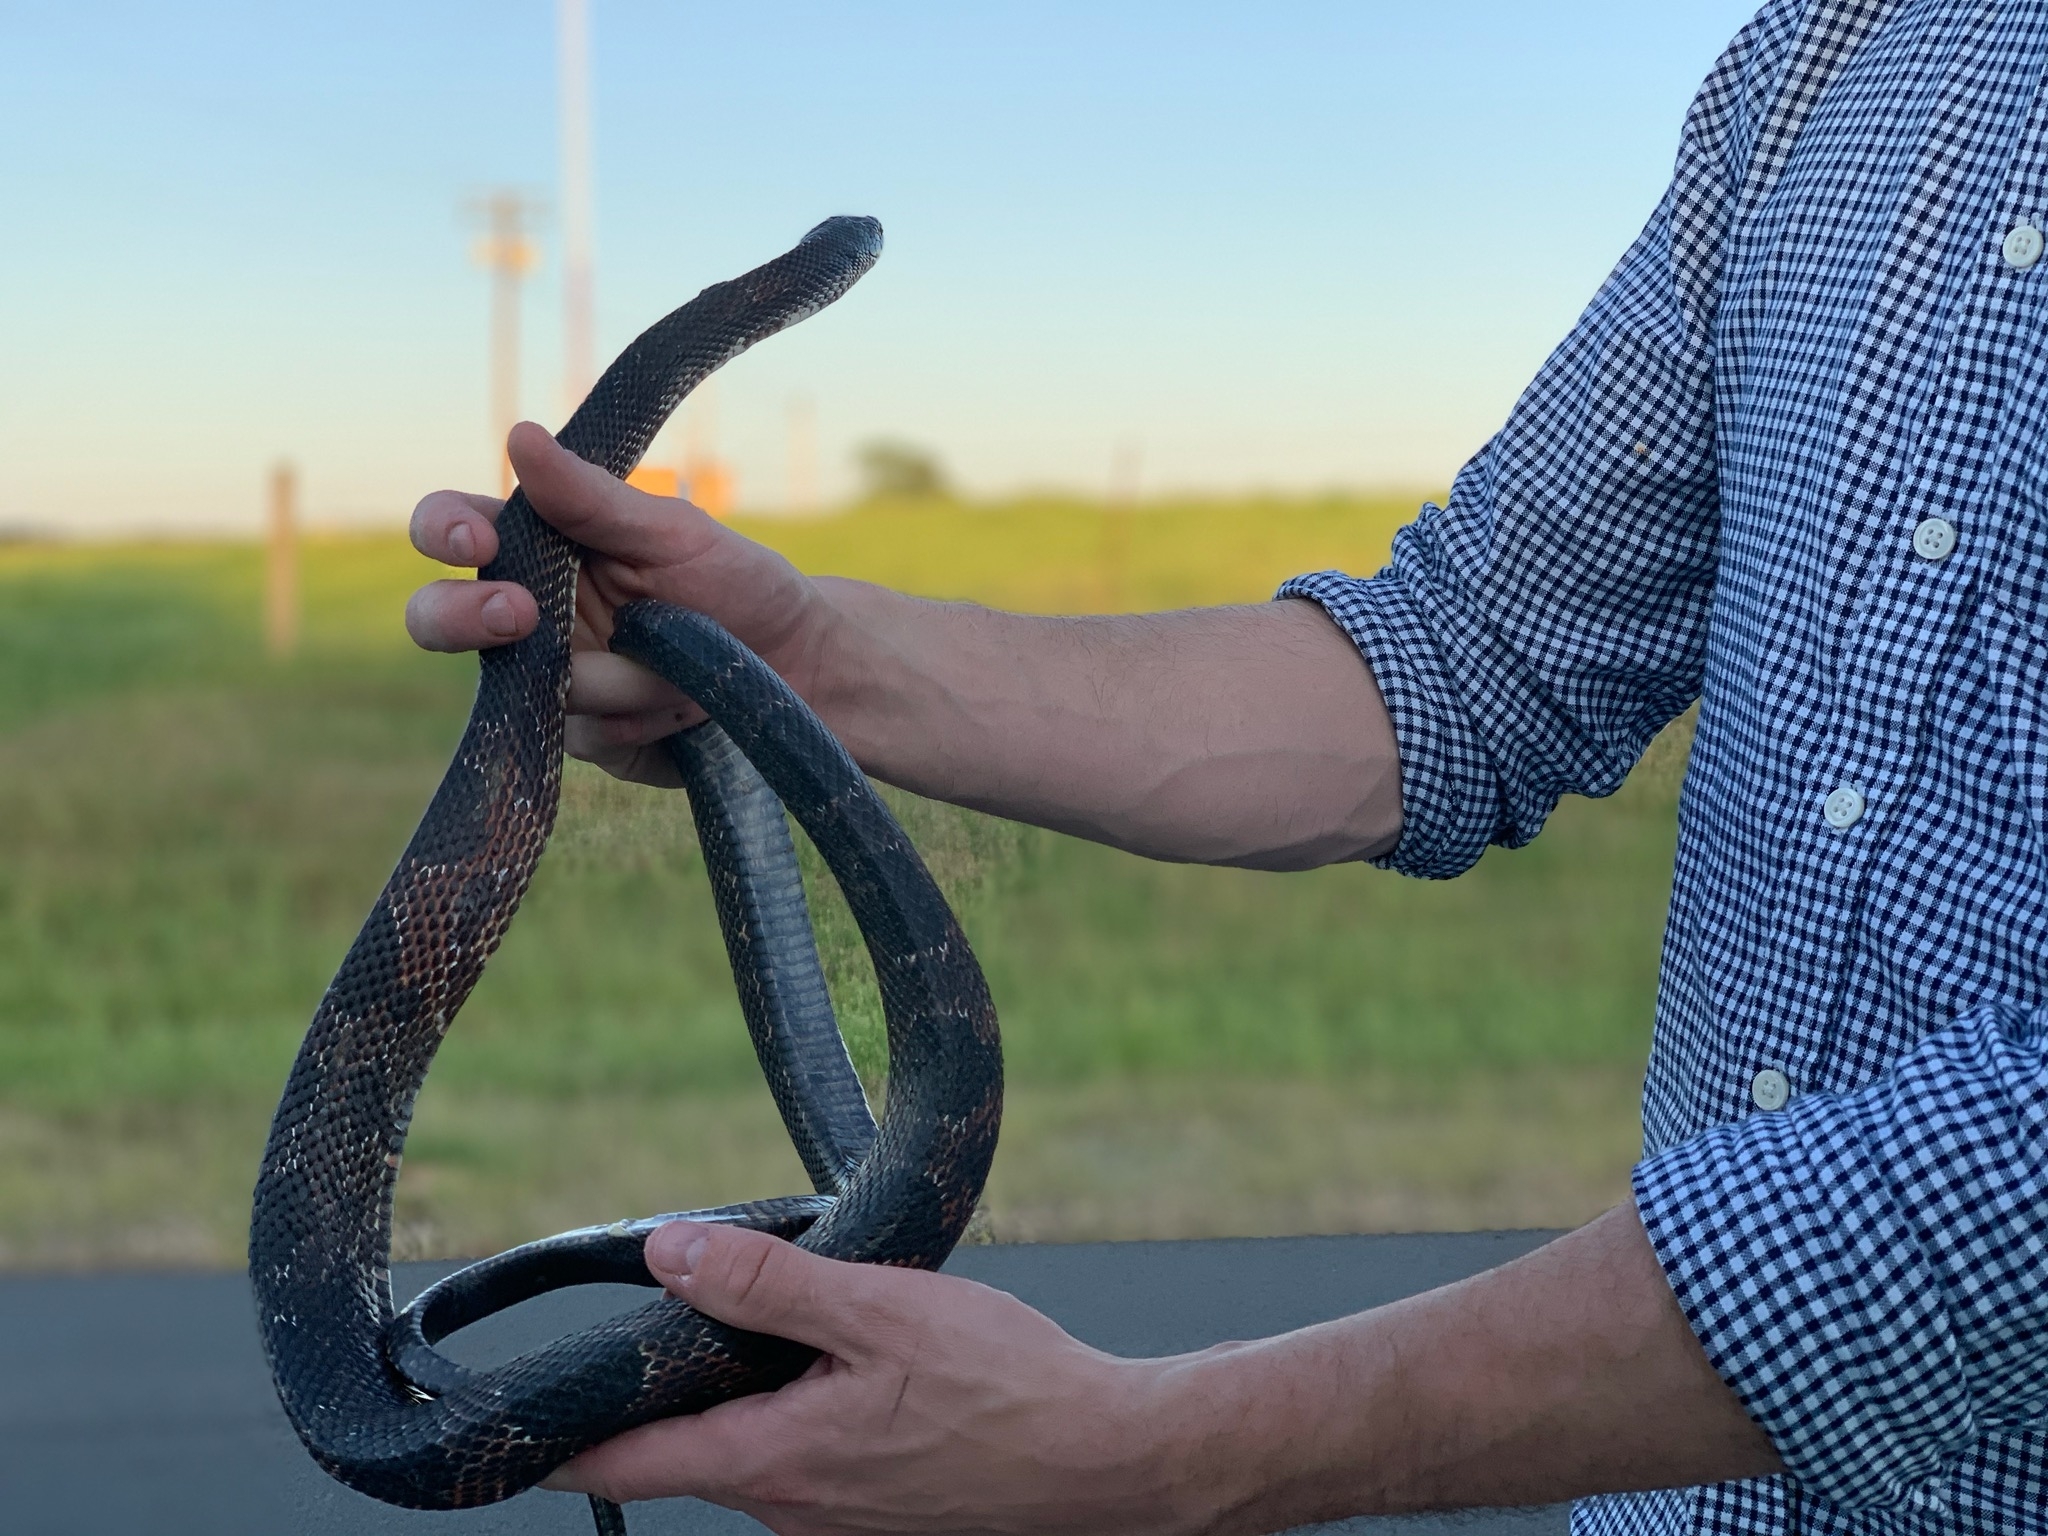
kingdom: Animalia
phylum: Chordata
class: Squamata
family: Colubridae
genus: Pantherophis
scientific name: Pantherophis obsoletus
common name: Black rat snake
